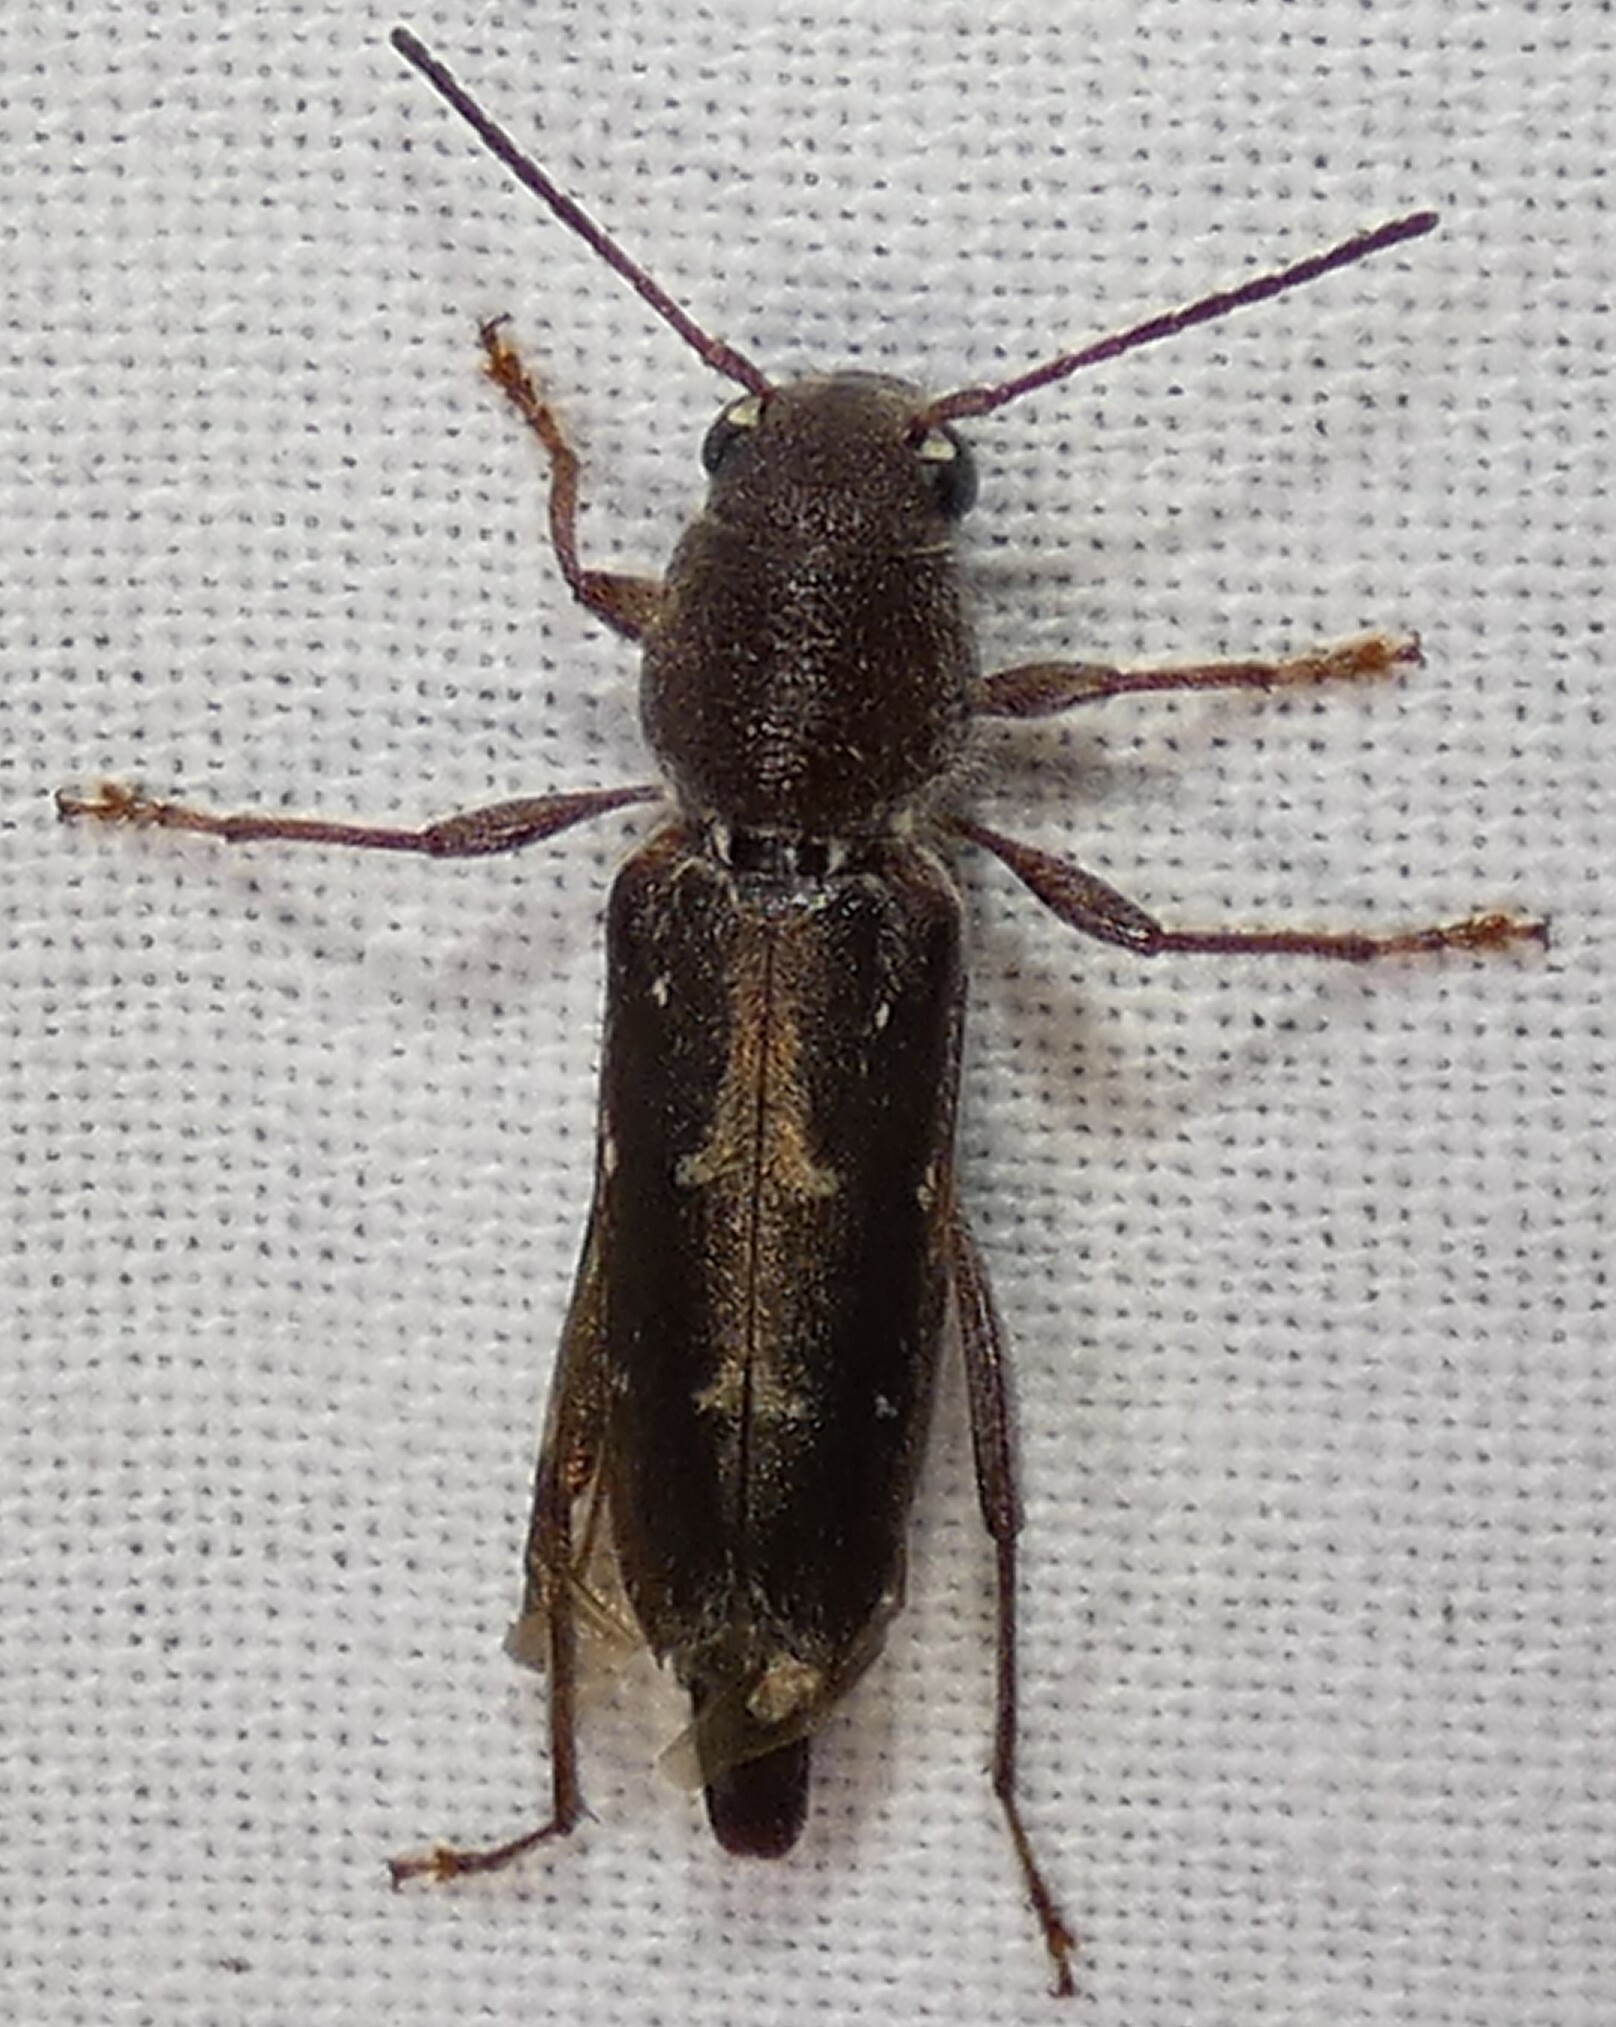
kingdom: Animalia
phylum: Arthropoda
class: Insecta
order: Coleoptera
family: Cerambycidae
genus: Xylotrechus
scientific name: Xylotrechus sagittatus
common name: Arrowhead borer
